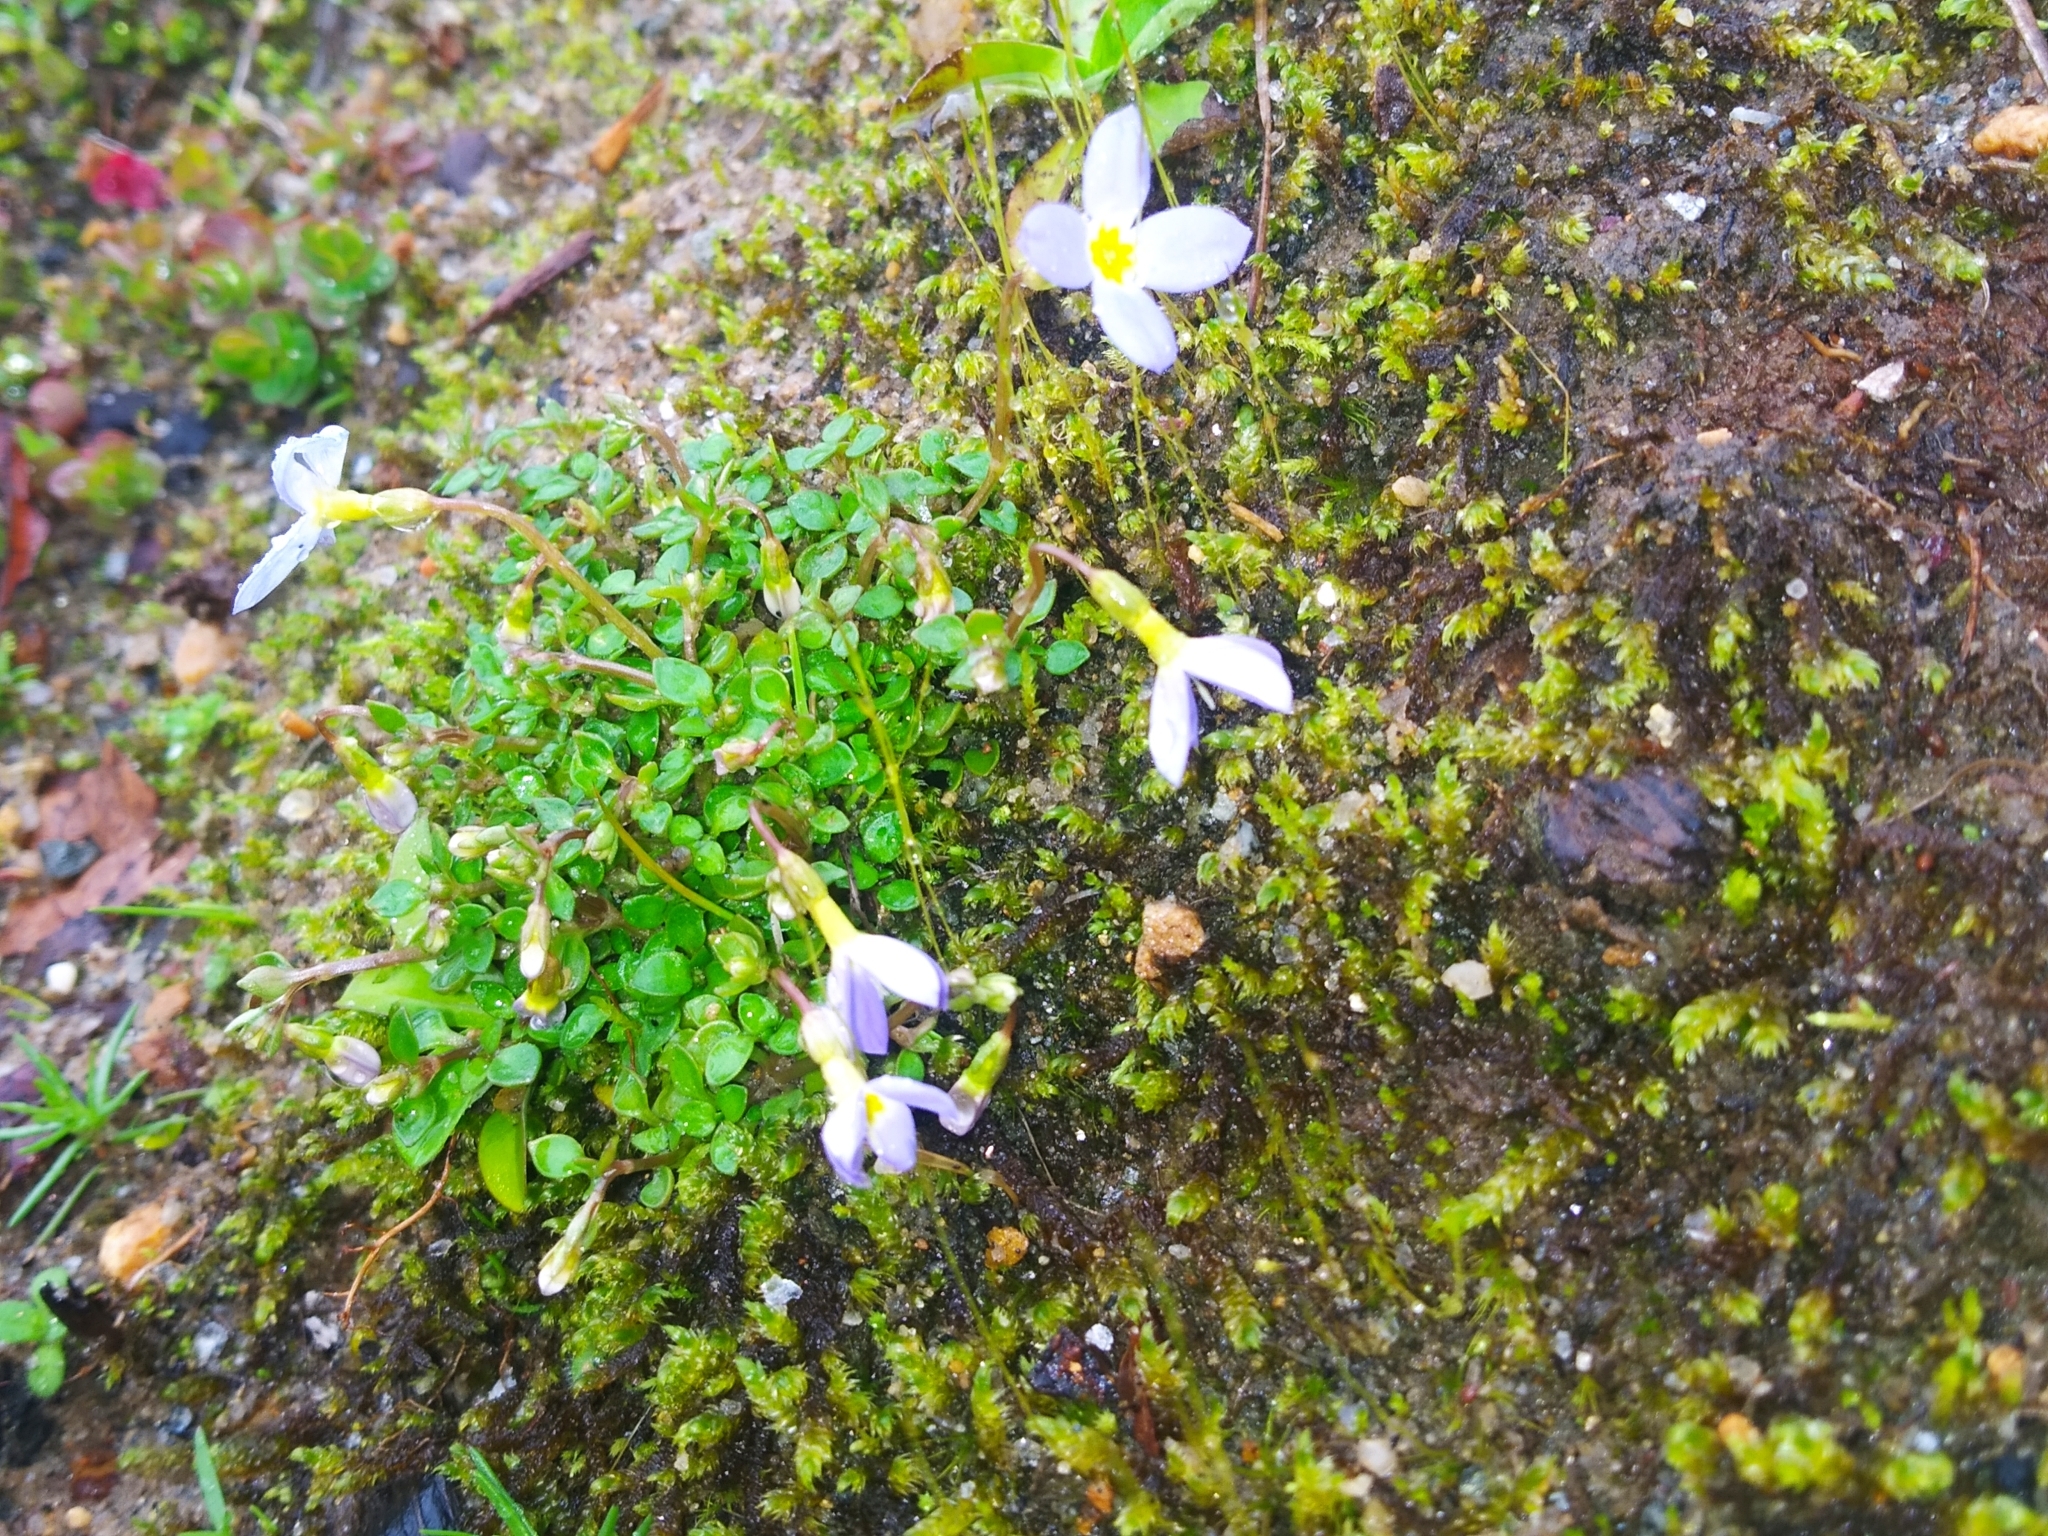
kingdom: Plantae
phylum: Tracheophyta
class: Magnoliopsida
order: Gentianales
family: Rubiaceae
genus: Houstonia
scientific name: Houstonia caerulea
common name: Bluets
